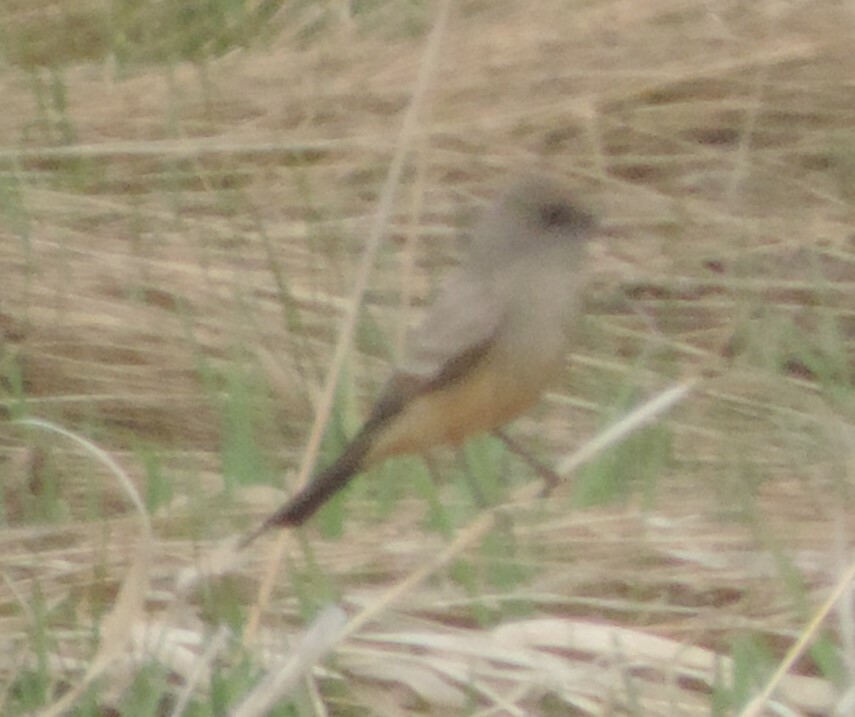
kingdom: Animalia
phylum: Chordata
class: Aves
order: Passeriformes
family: Tyrannidae
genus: Sayornis
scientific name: Sayornis saya
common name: Say's phoebe
